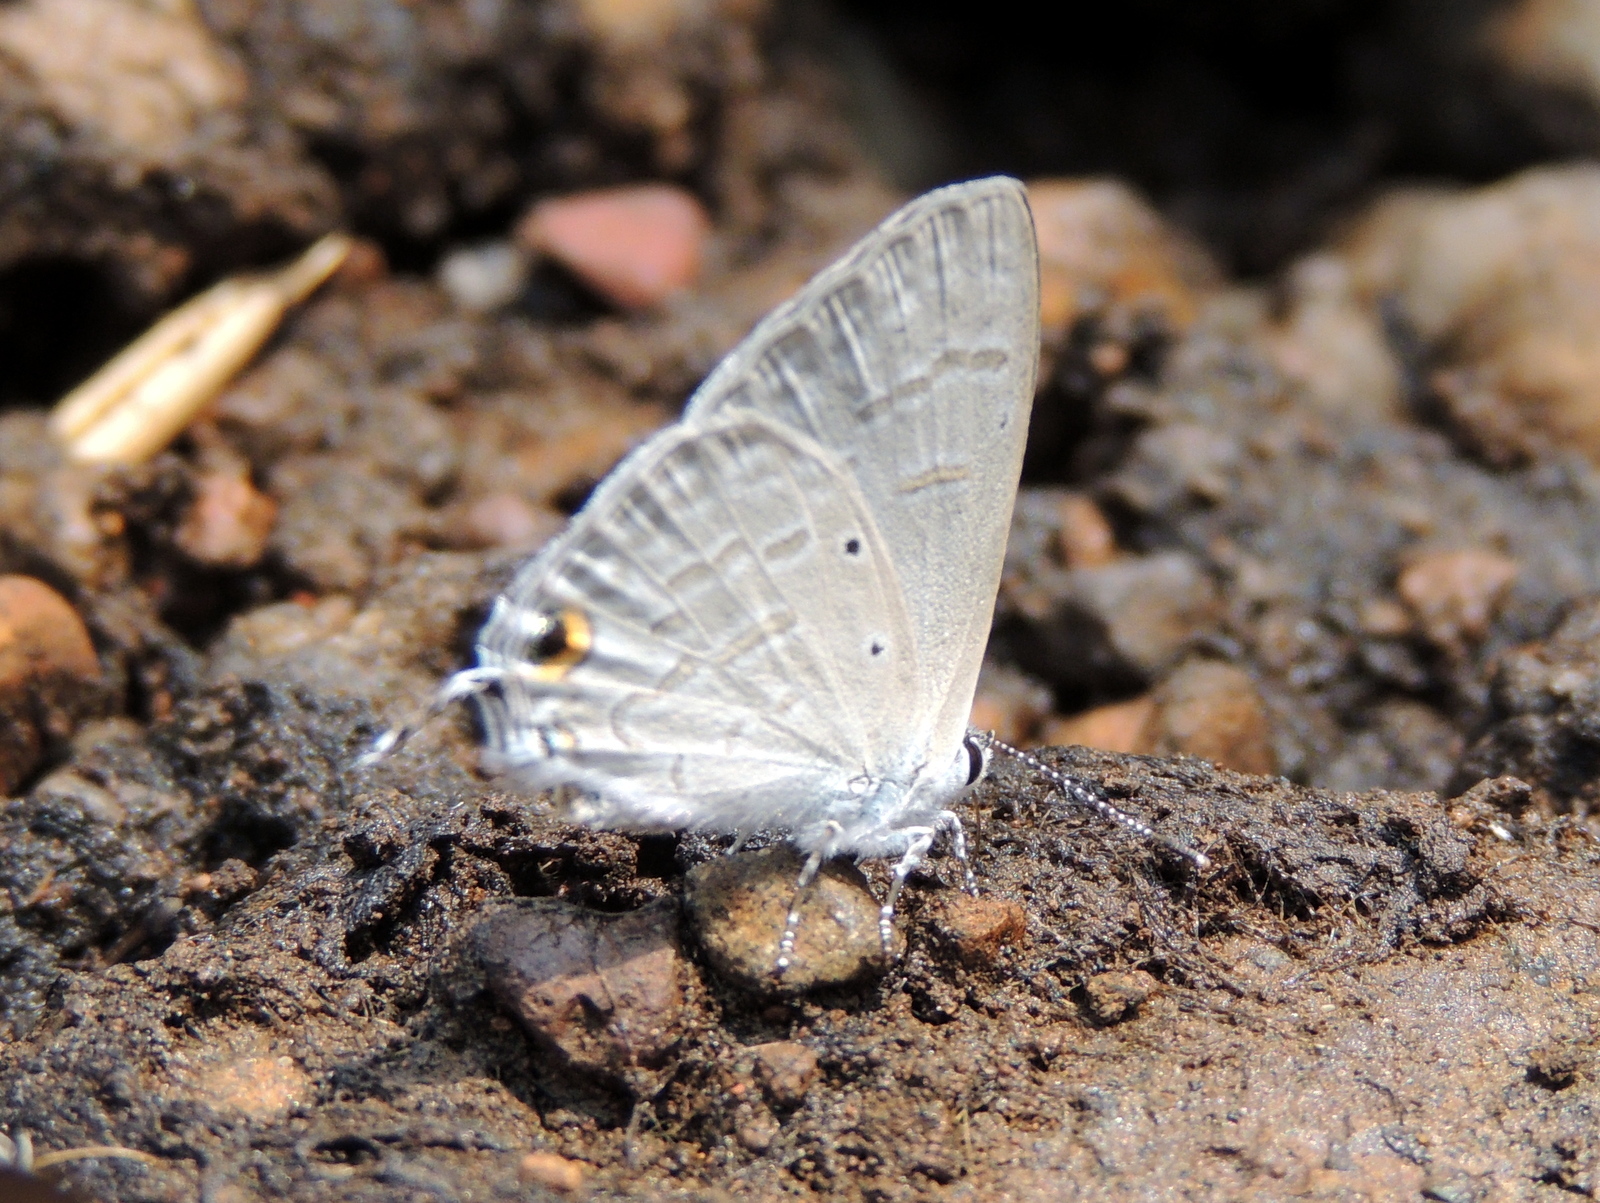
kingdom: Animalia
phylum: Arthropoda
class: Insecta
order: Lepidoptera
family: Lycaenidae
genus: Catochrysops
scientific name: Catochrysops strabo
